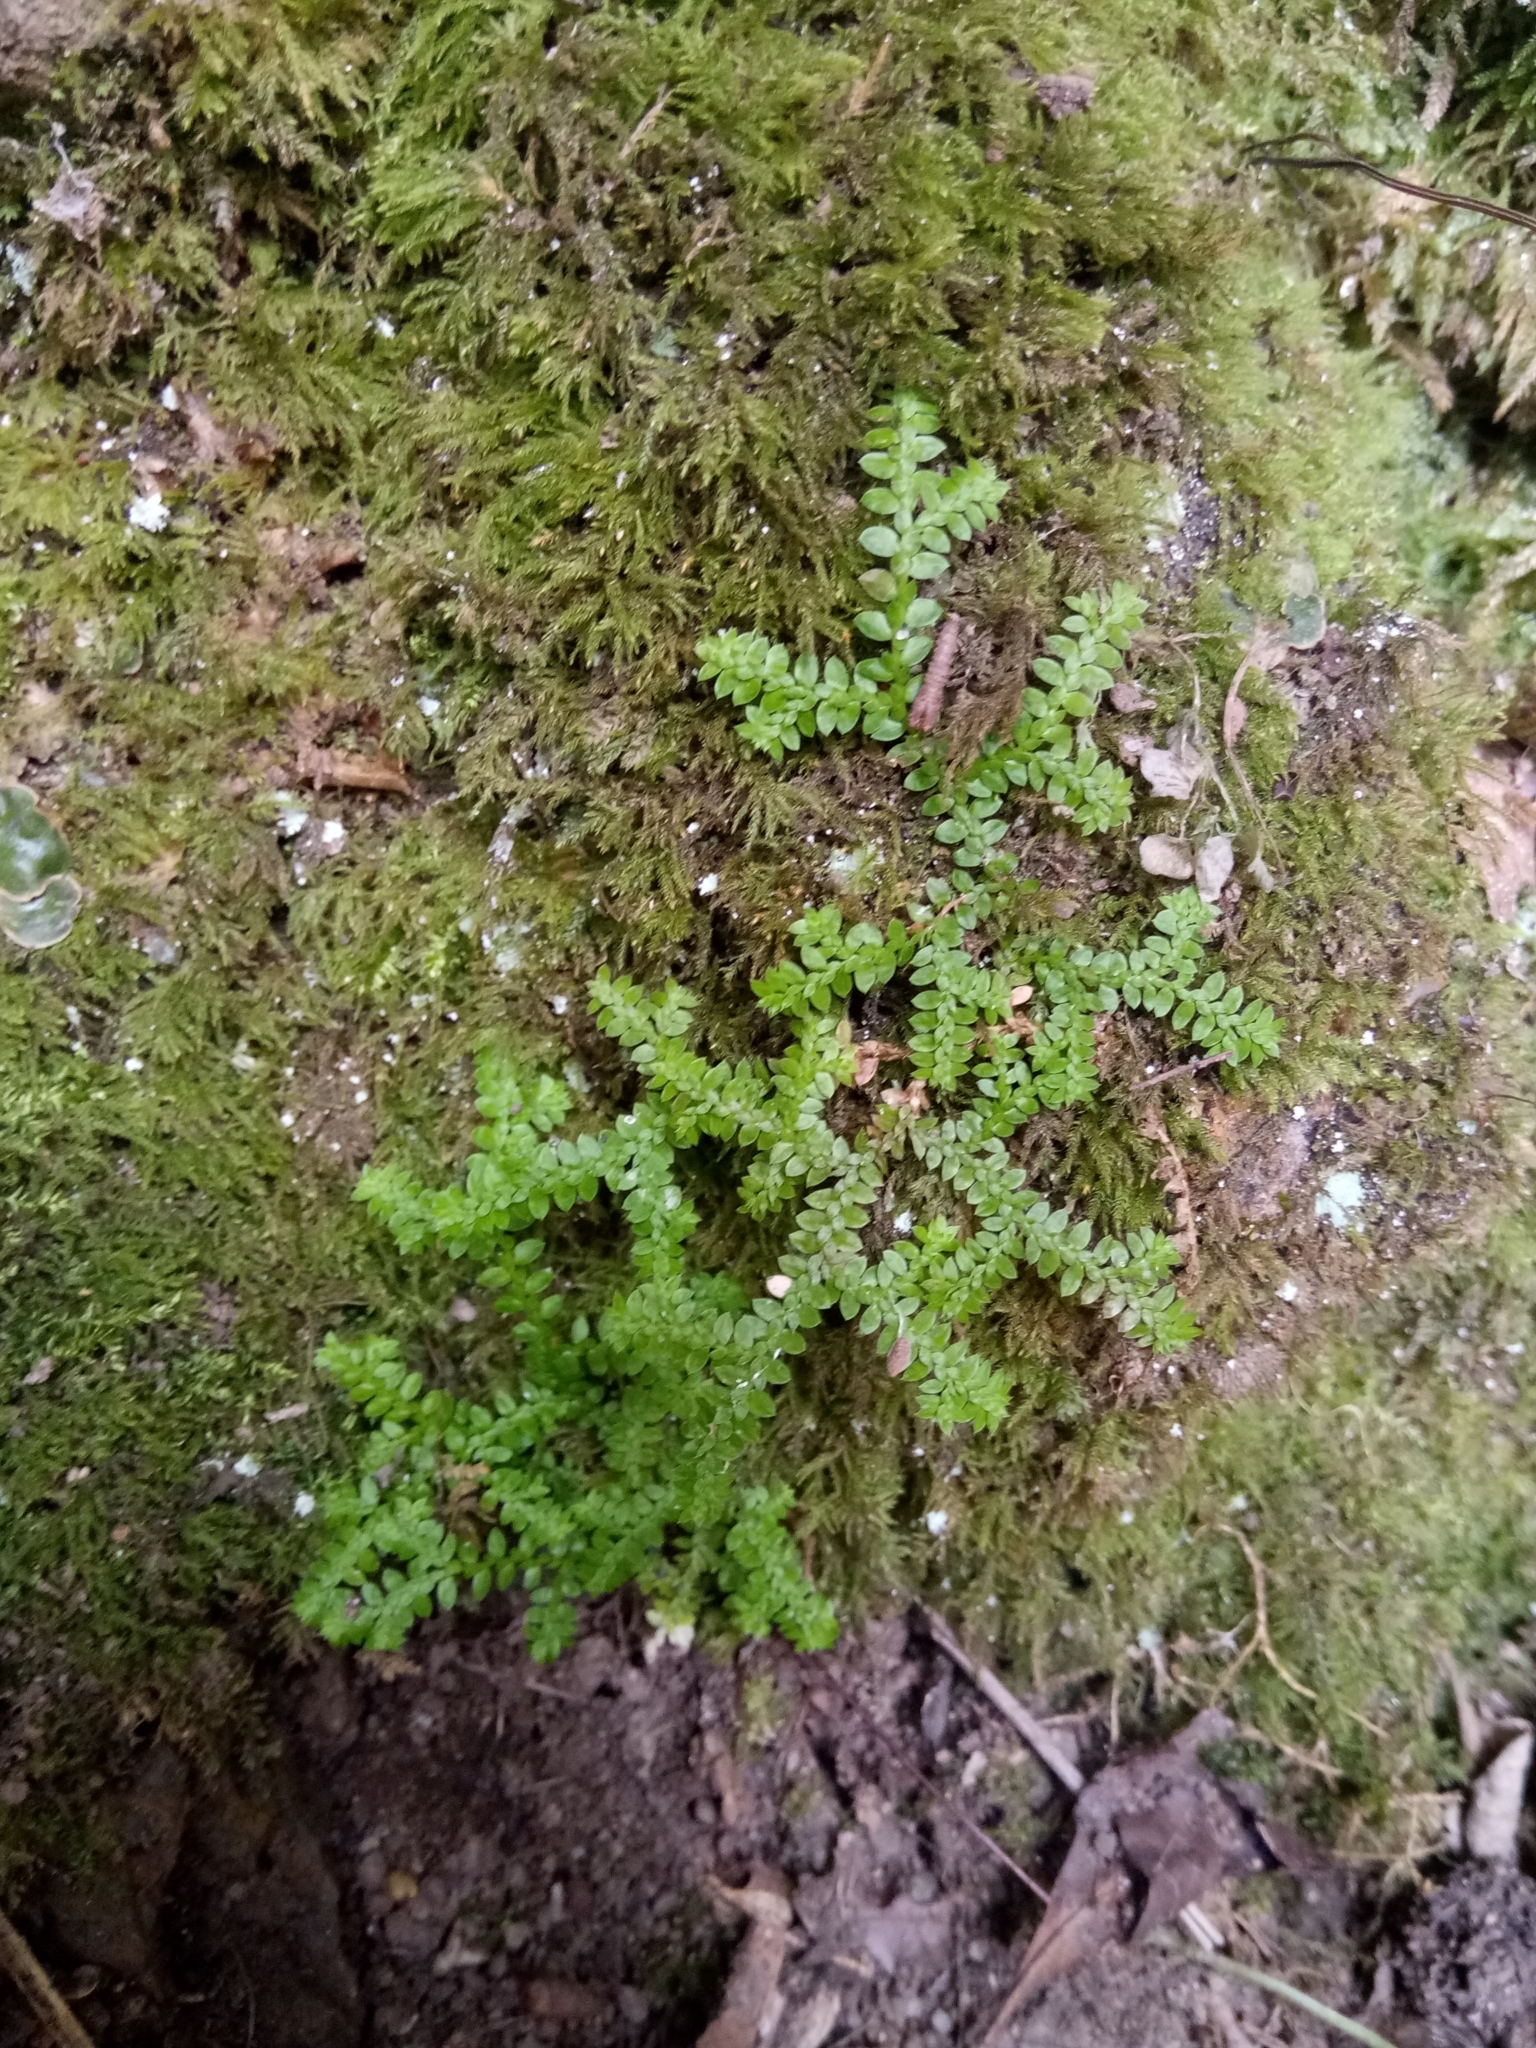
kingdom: Plantae
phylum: Tracheophyta
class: Lycopodiopsida
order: Selaginellales
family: Selaginellaceae
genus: Selaginella
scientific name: Selaginella denticulata
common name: Toothed-leaved clubmoss
